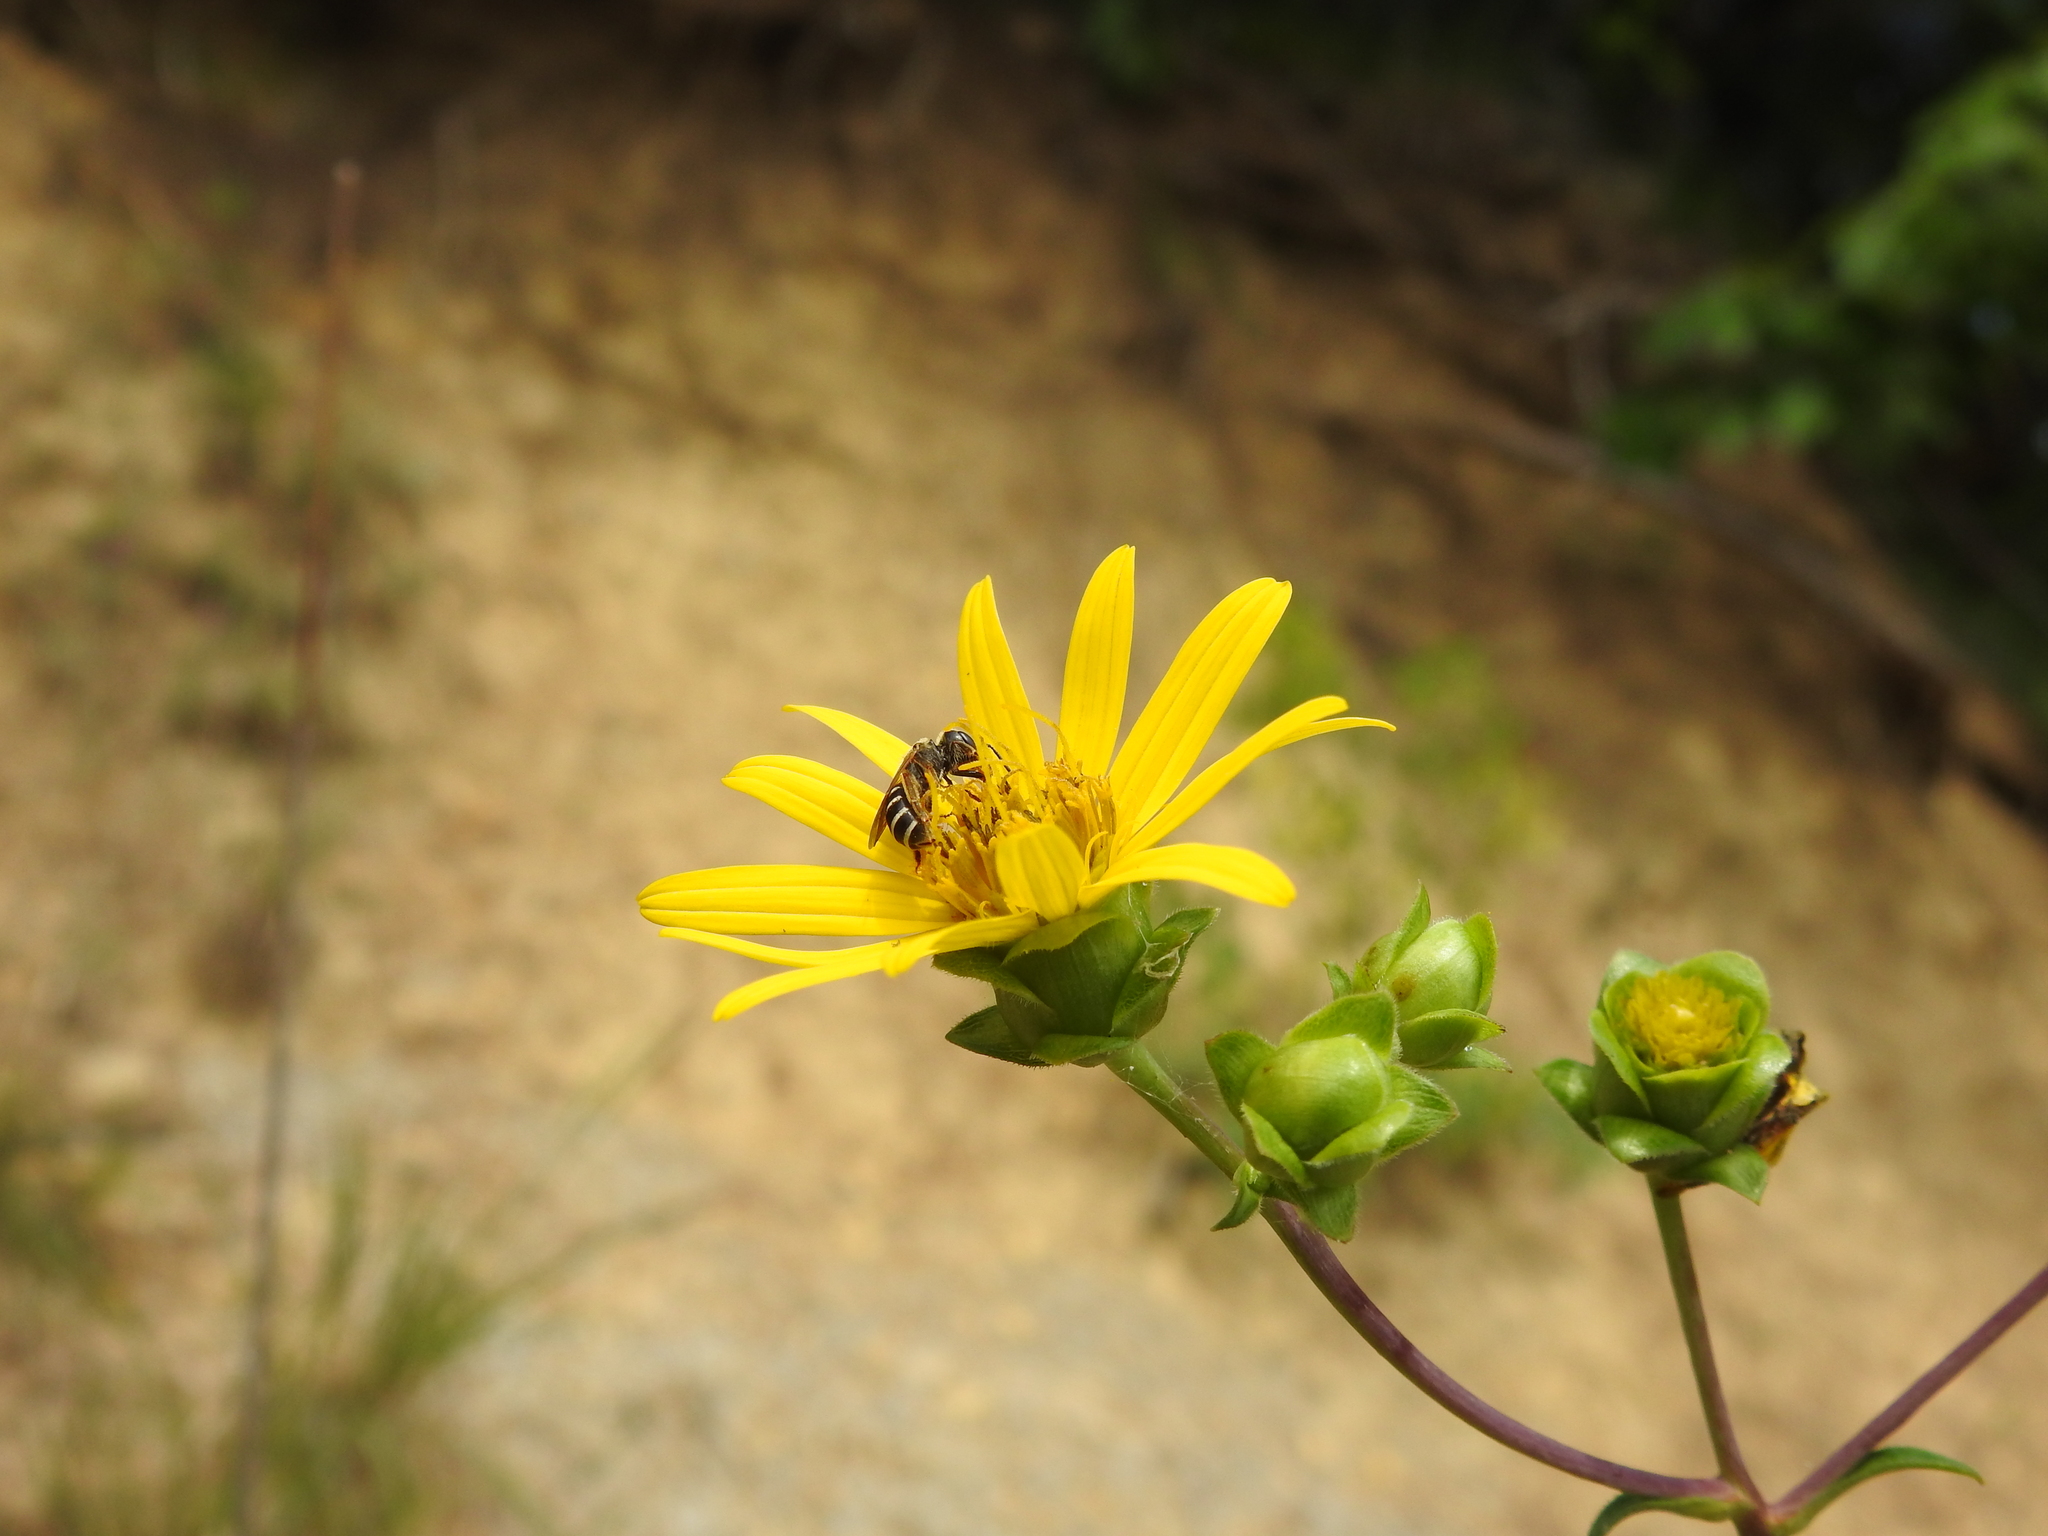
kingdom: Animalia
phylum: Arthropoda
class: Insecta
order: Hymenoptera
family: Halictidae
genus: Halictus
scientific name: Halictus ligatus
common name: Ligated furrow bee
